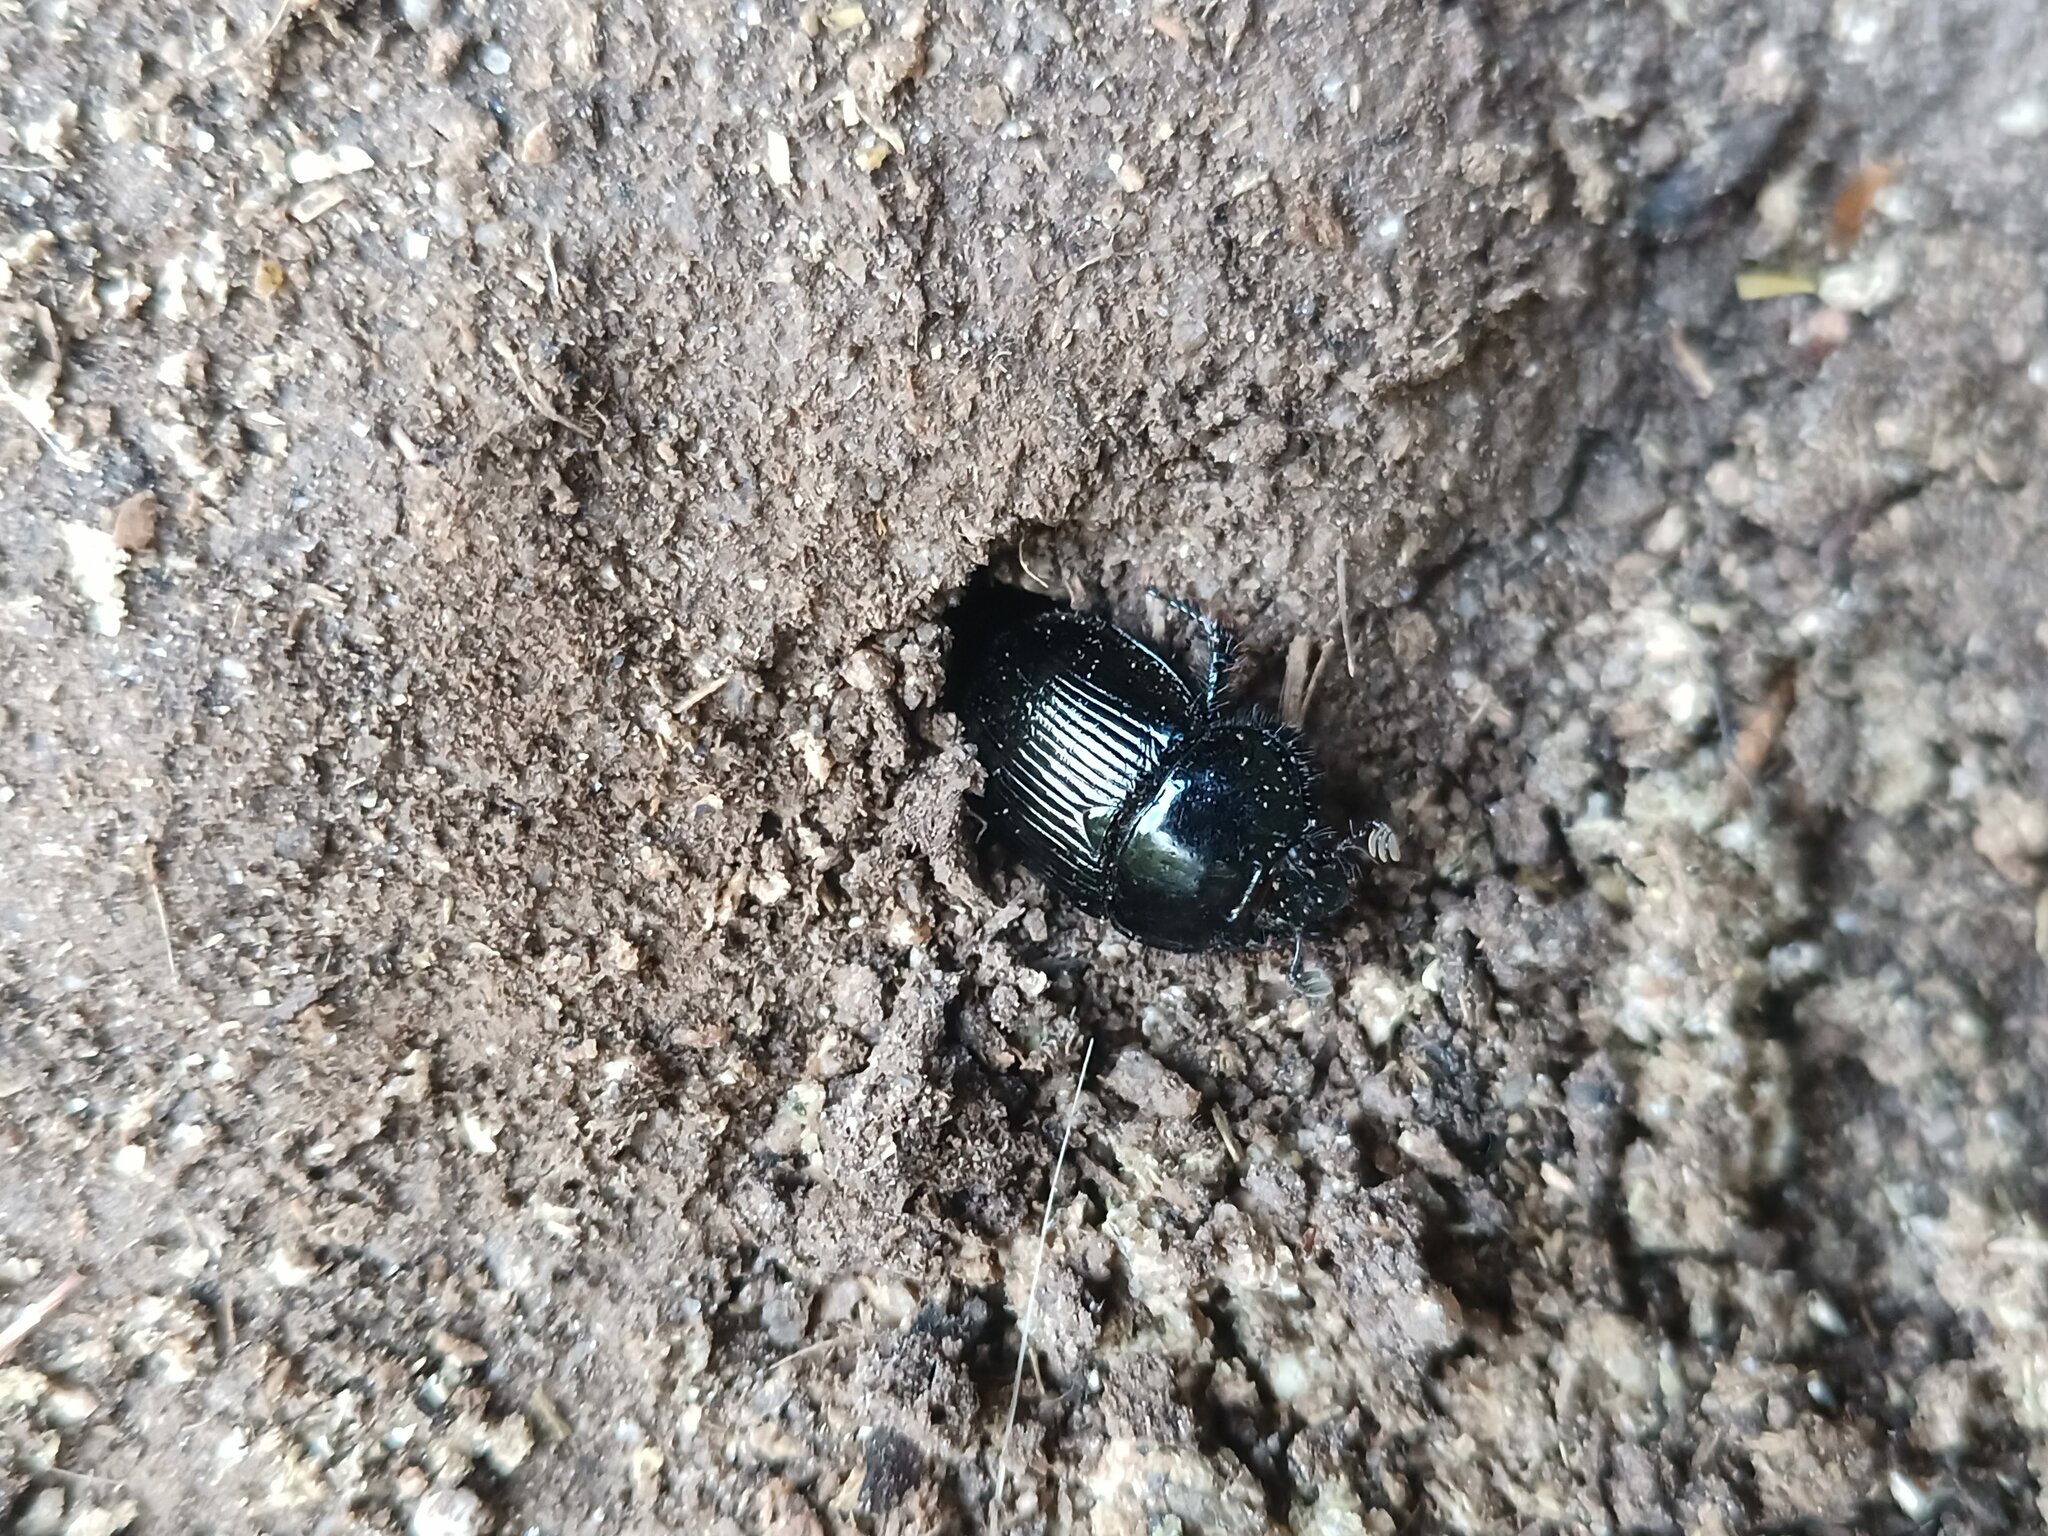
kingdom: Animalia
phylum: Arthropoda
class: Insecta
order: Coleoptera
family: Geotrupidae
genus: Typhaeus
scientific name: Typhaeus typhoeus
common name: Minotaur beetle
